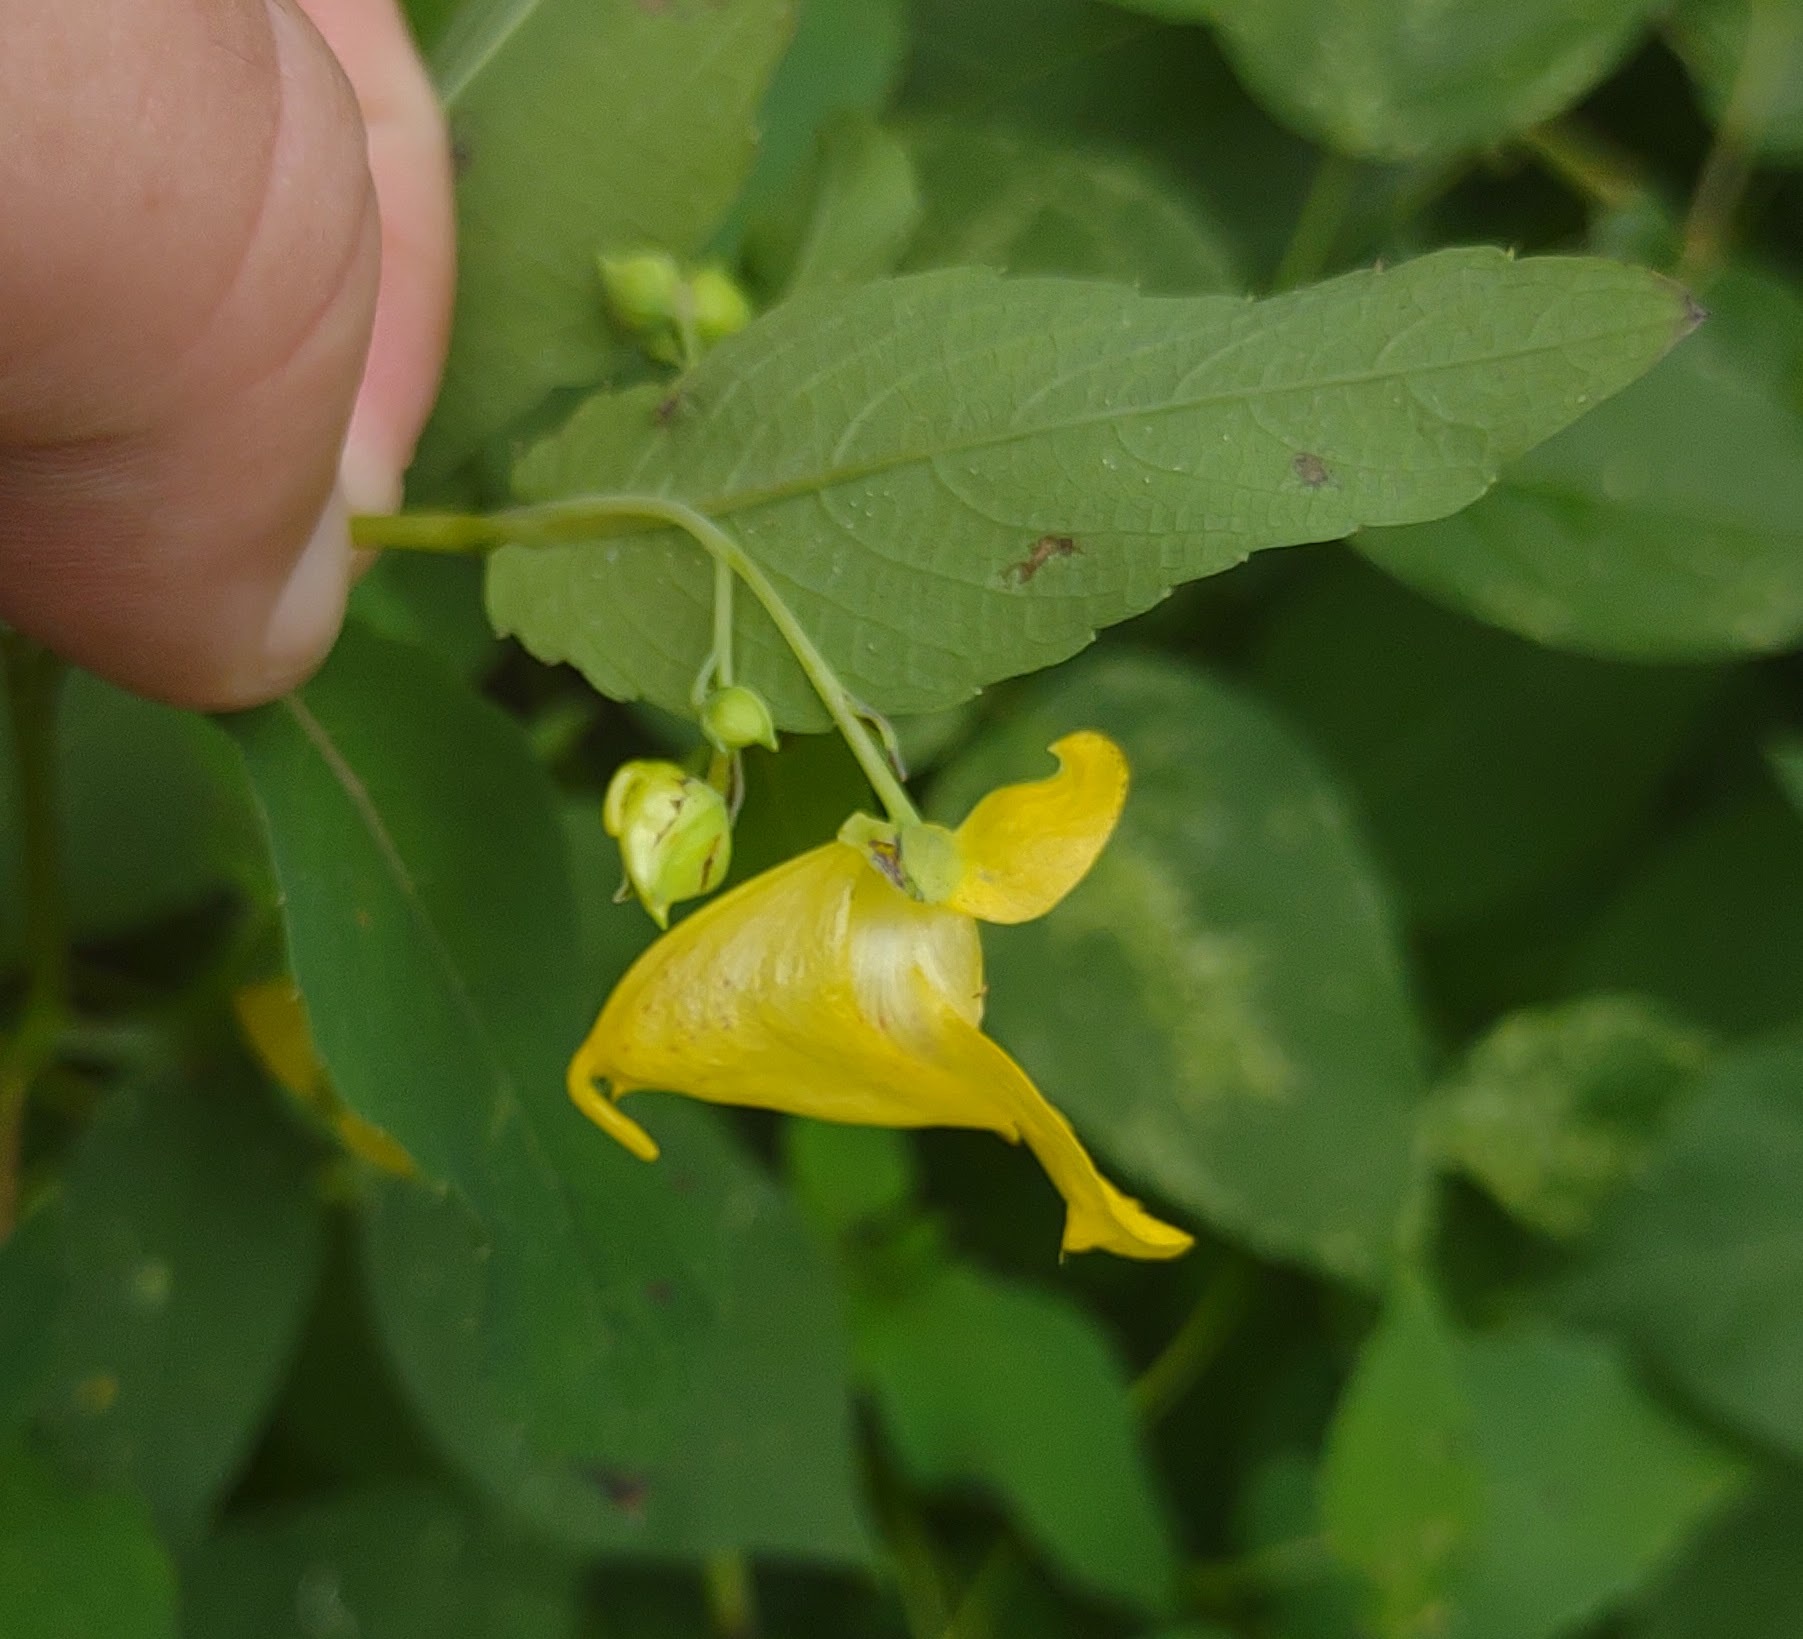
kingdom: Plantae
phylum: Tracheophyta
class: Magnoliopsida
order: Ericales
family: Balsaminaceae
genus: Impatiens
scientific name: Impatiens pallida
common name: Pale snapweed
